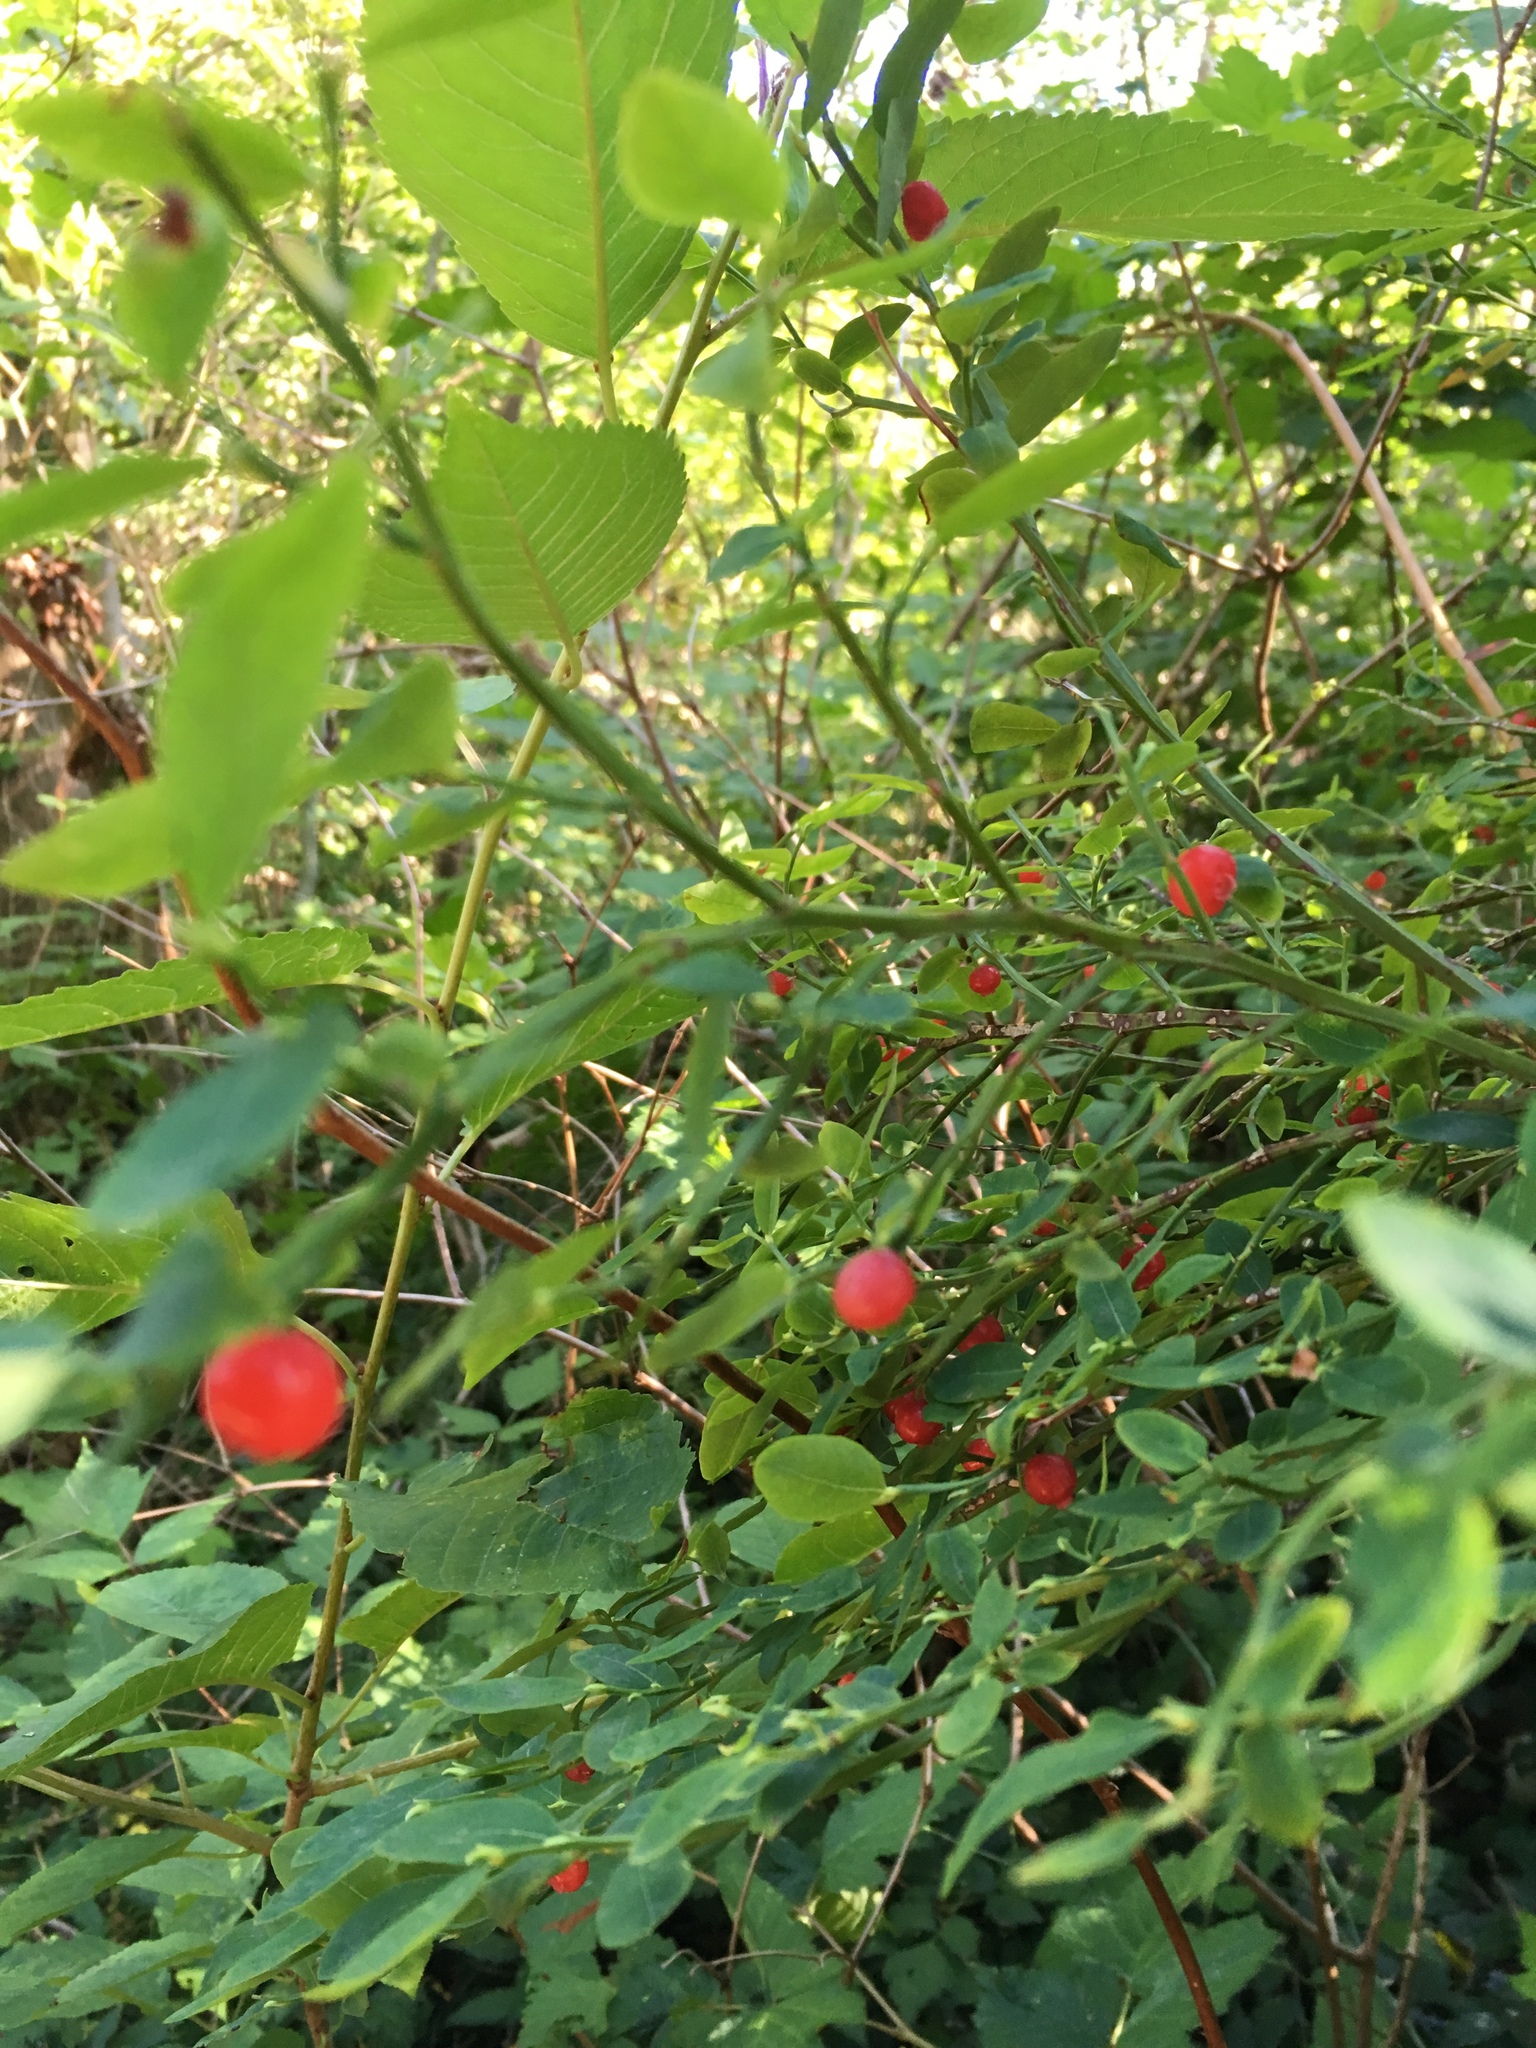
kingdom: Plantae
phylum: Tracheophyta
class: Magnoliopsida
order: Ericales
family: Ericaceae
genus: Vaccinium
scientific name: Vaccinium parvifolium
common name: Red-huckleberry
